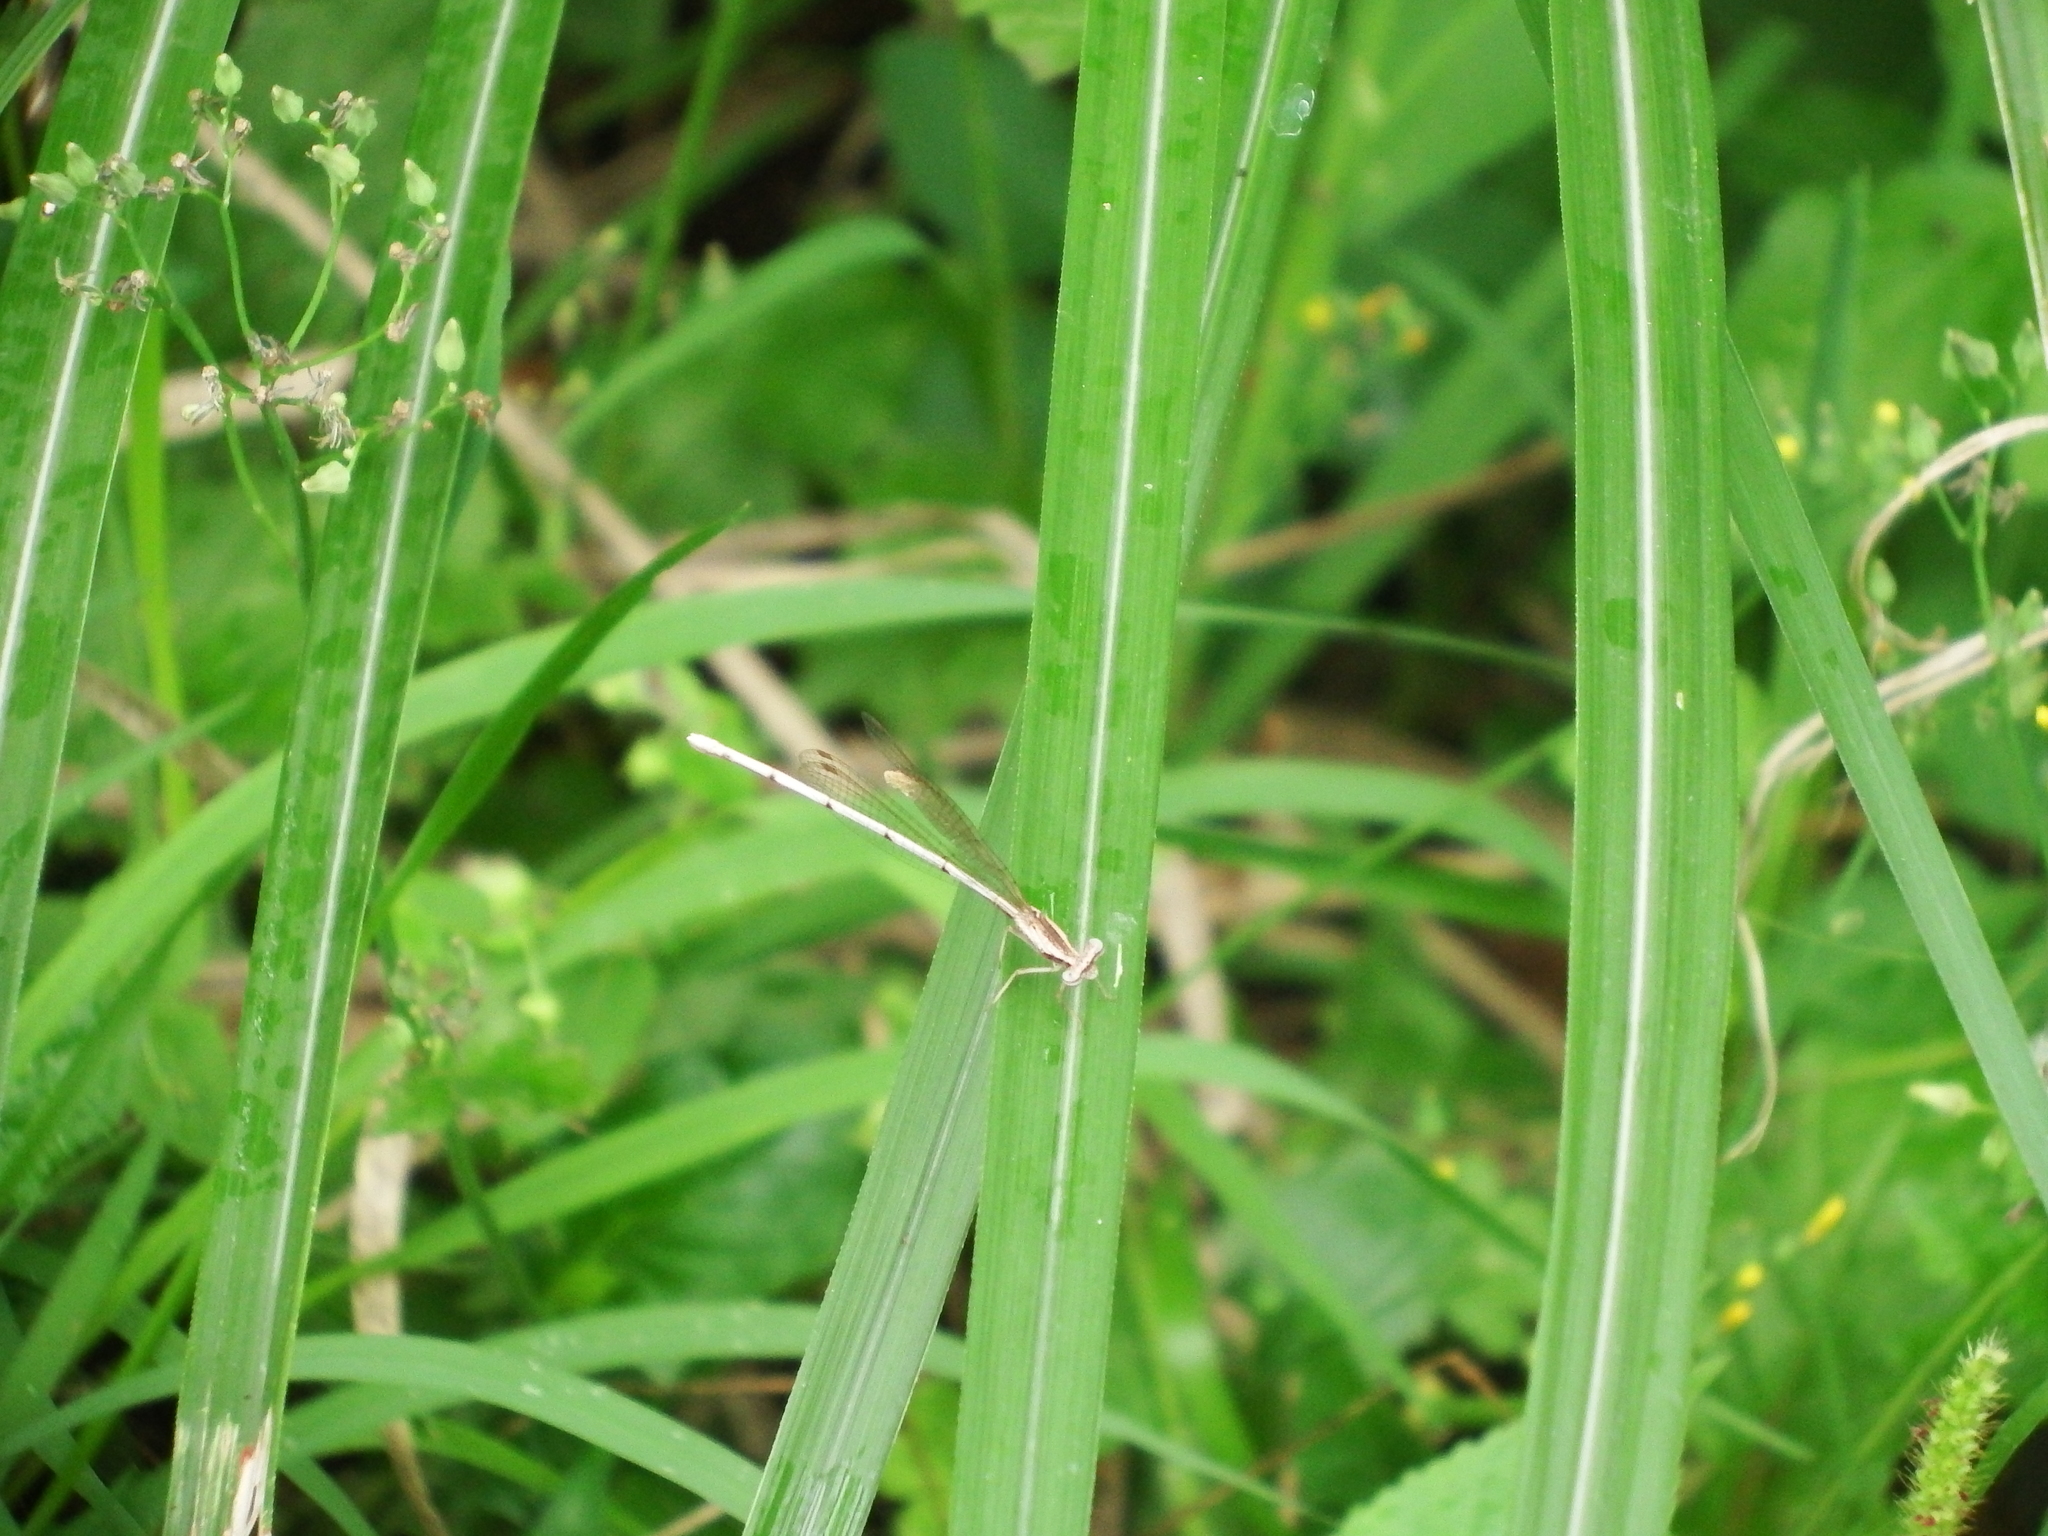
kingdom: Animalia
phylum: Arthropoda
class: Insecta
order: Odonata
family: Platycnemididae
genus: Copera
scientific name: Copera marginipes
